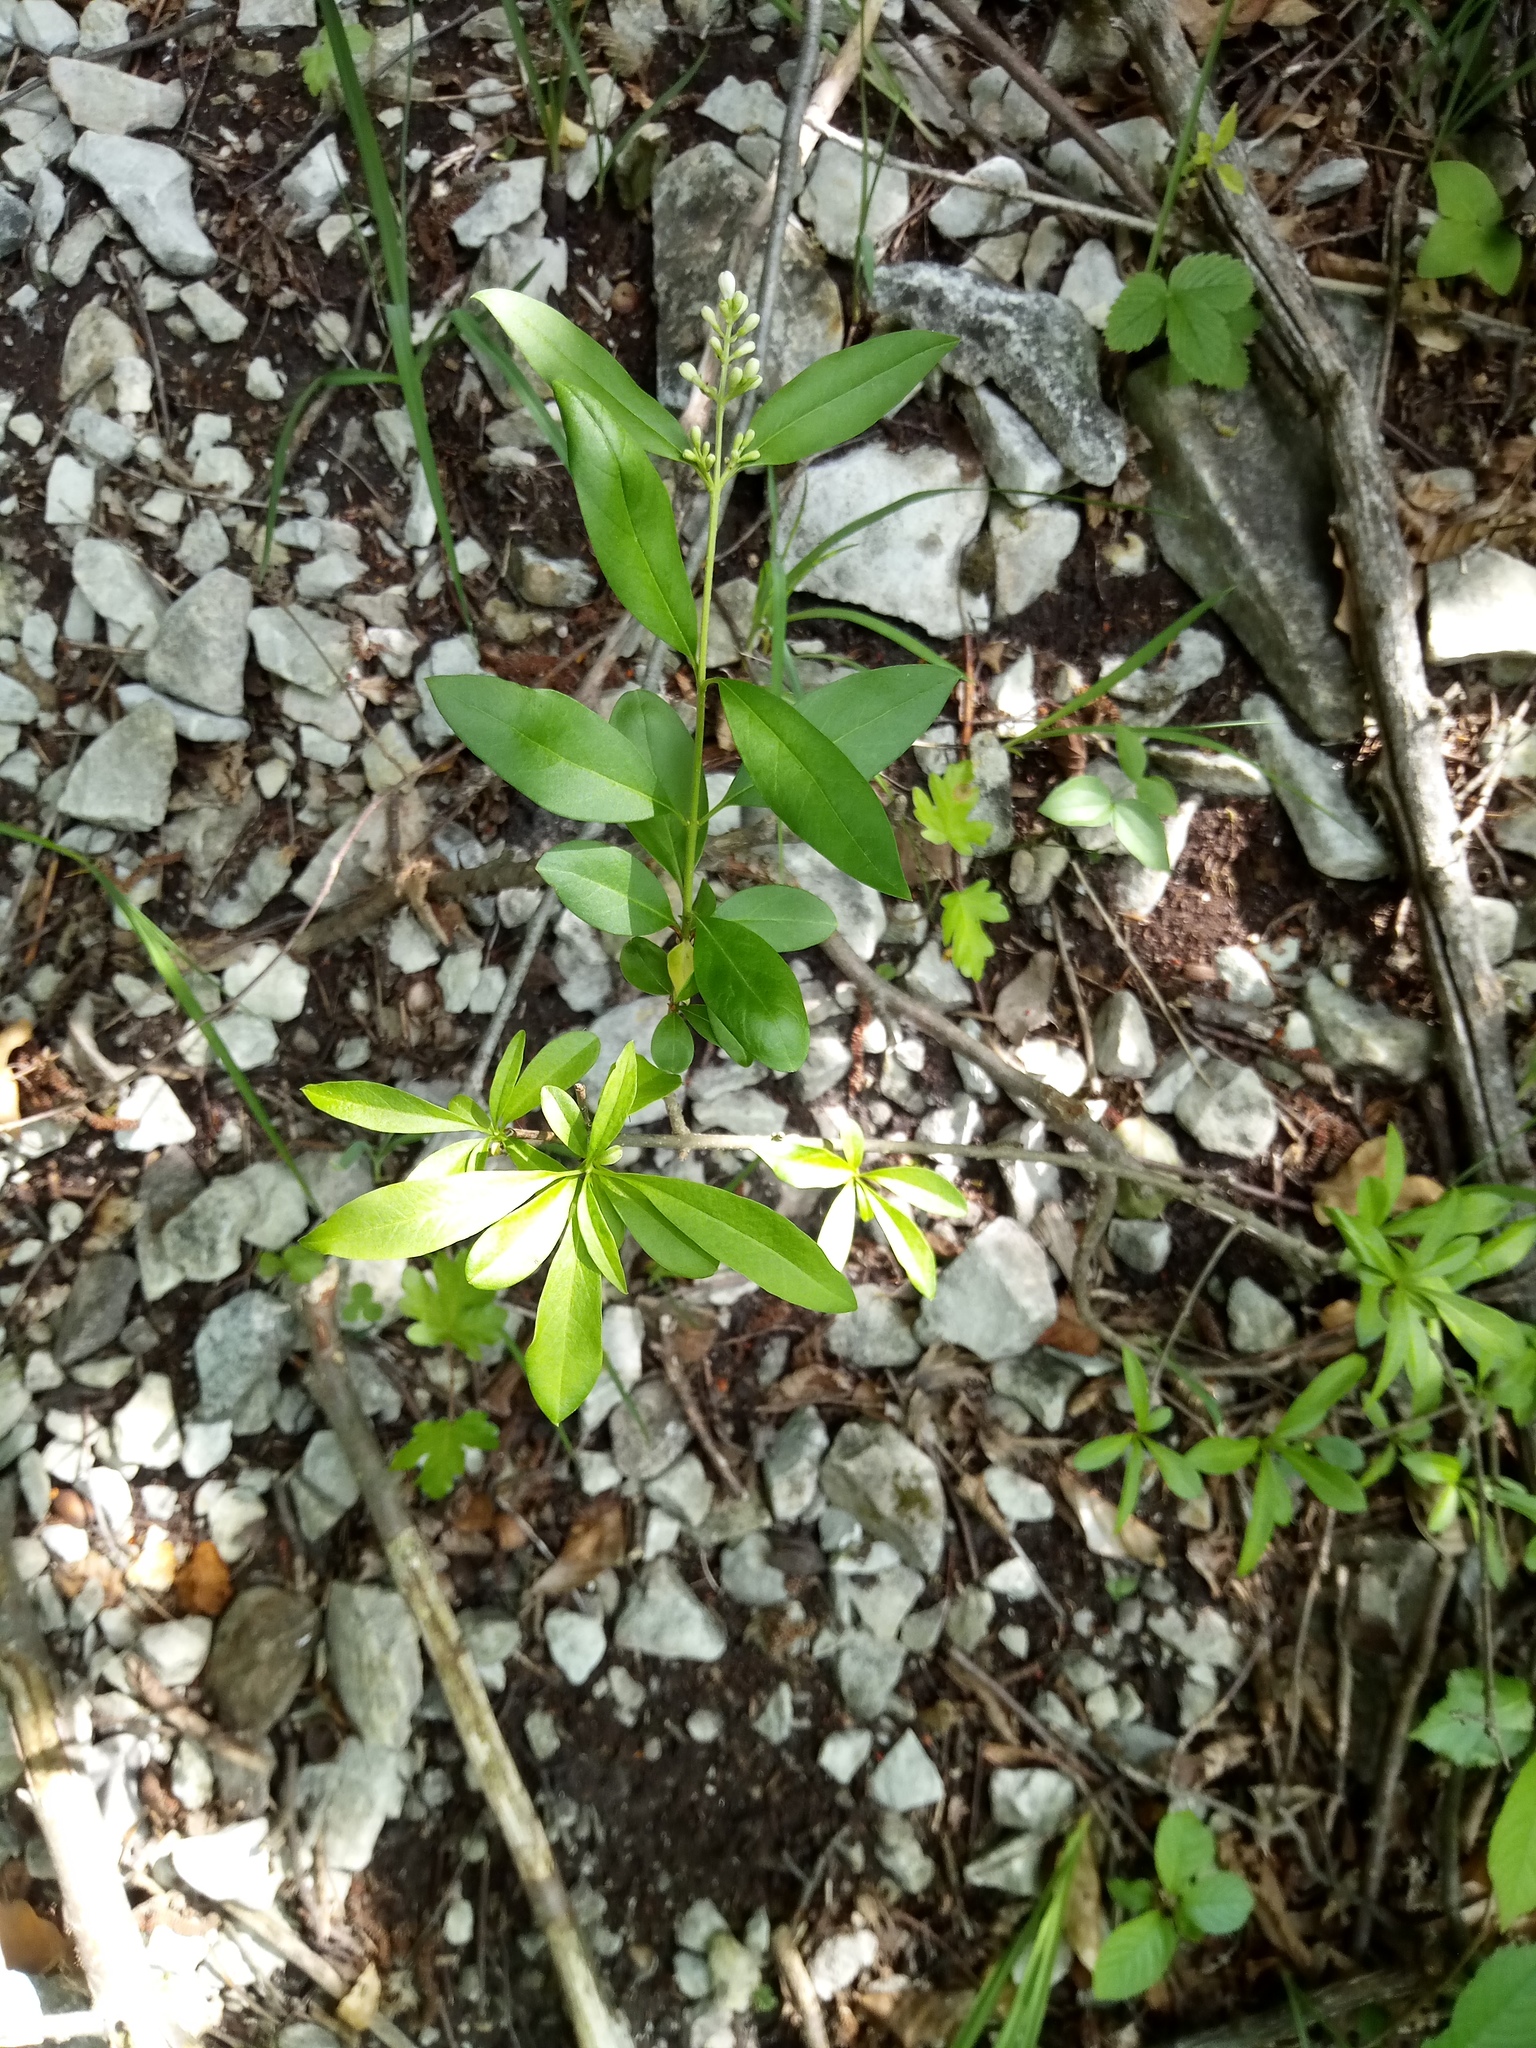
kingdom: Plantae
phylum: Tracheophyta
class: Magnoliopsida
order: Lamiales
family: Oleaceae
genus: Ligustrum
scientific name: Ligustrum vulgare
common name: Wild privet
